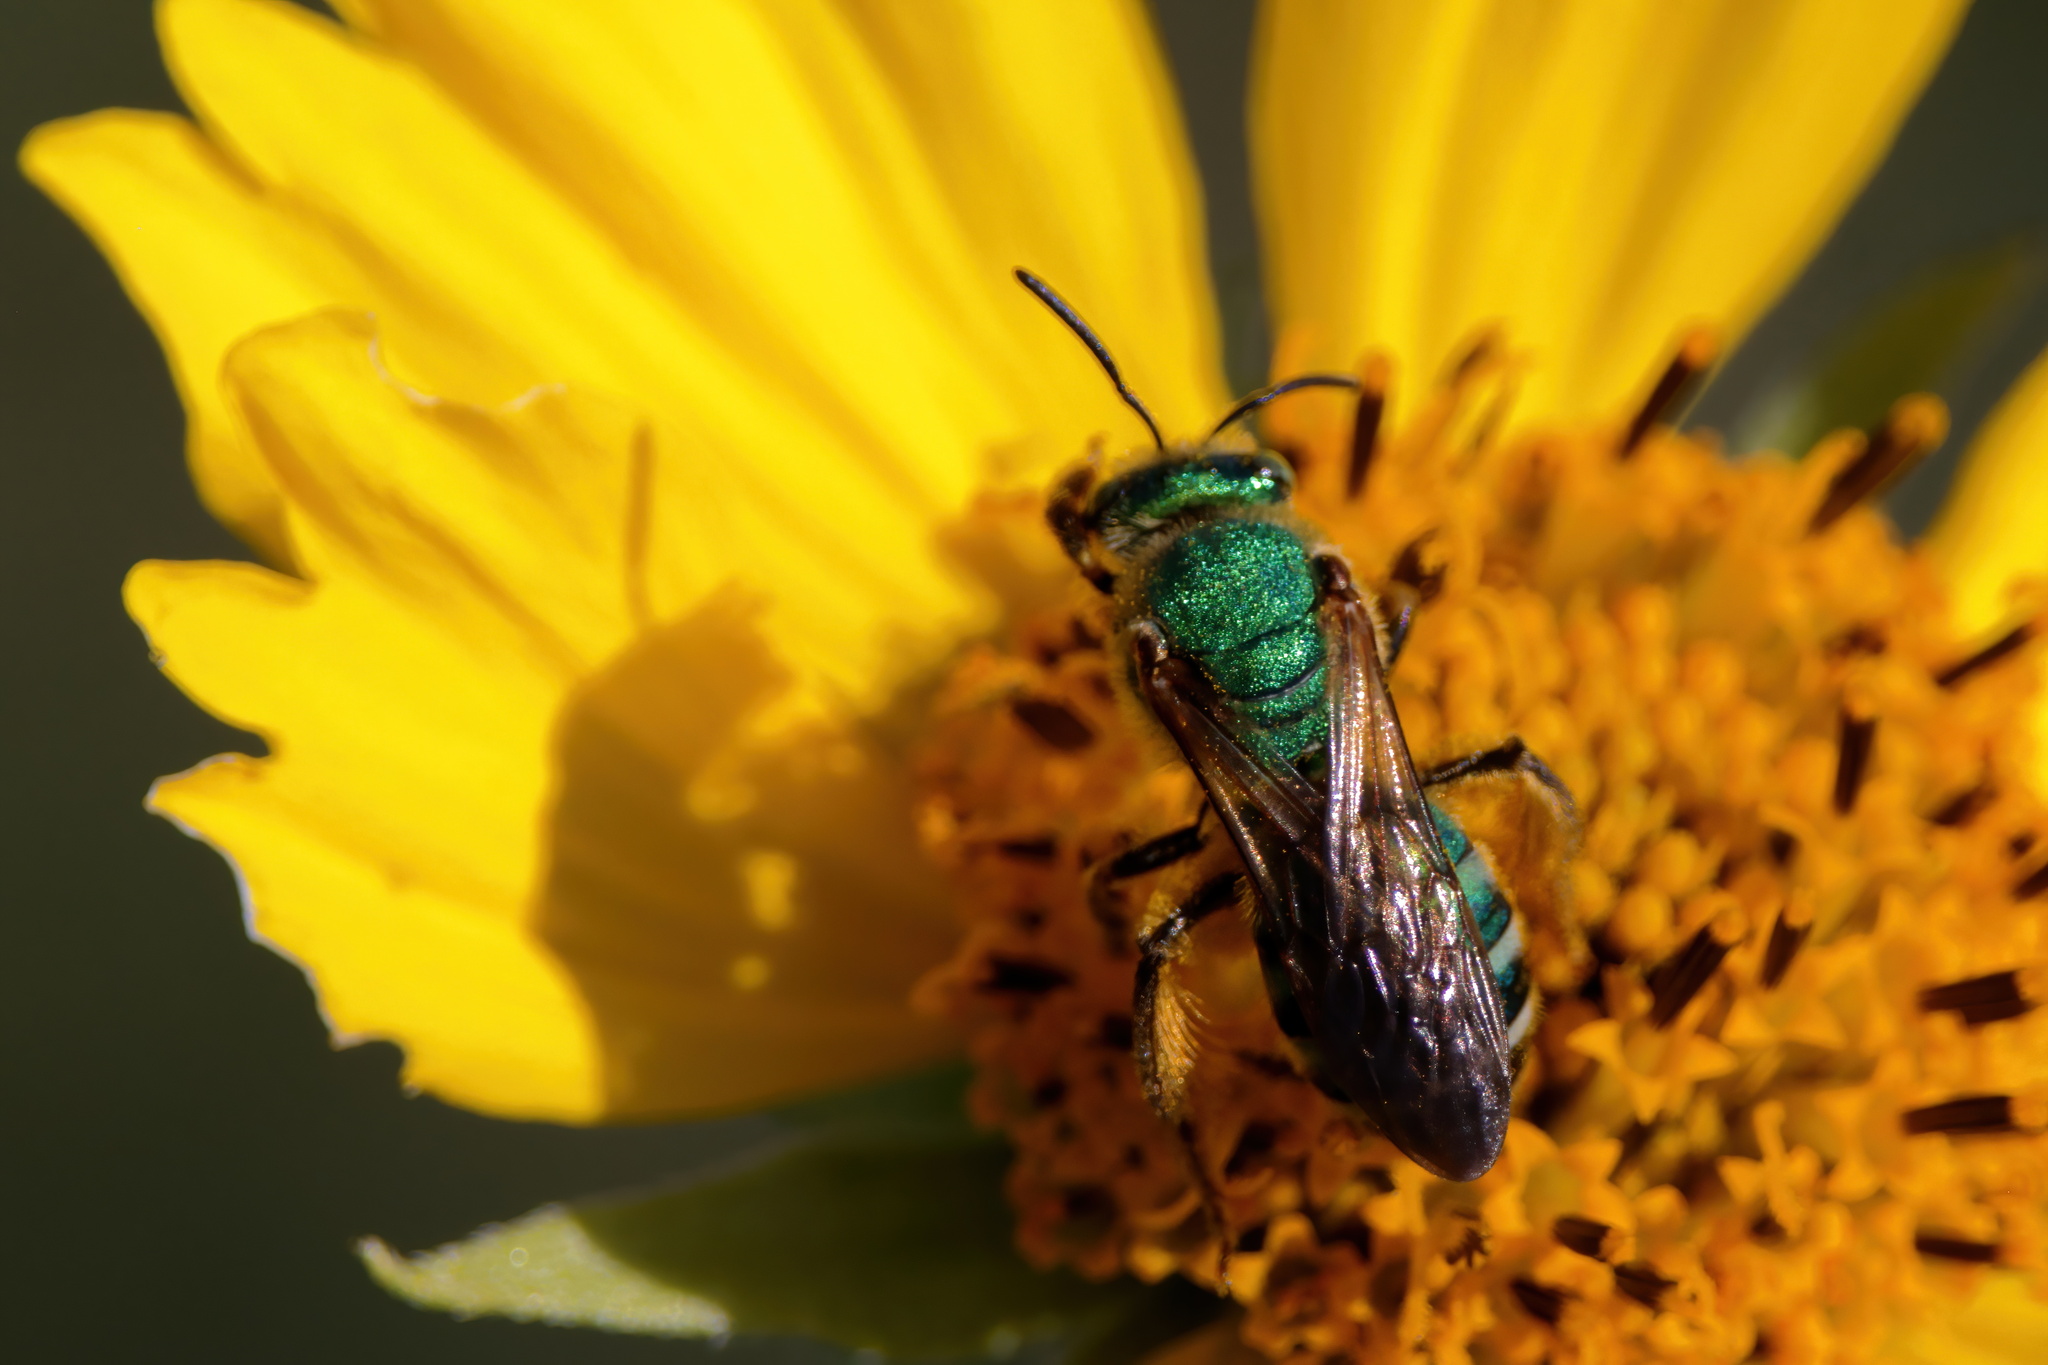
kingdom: Animalia
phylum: Arthropoda
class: Insecta
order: Hymenoptera
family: Halictidae
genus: Agapostemon
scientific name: Agapostemon splendens
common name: Brown-winged striped sweat bee
